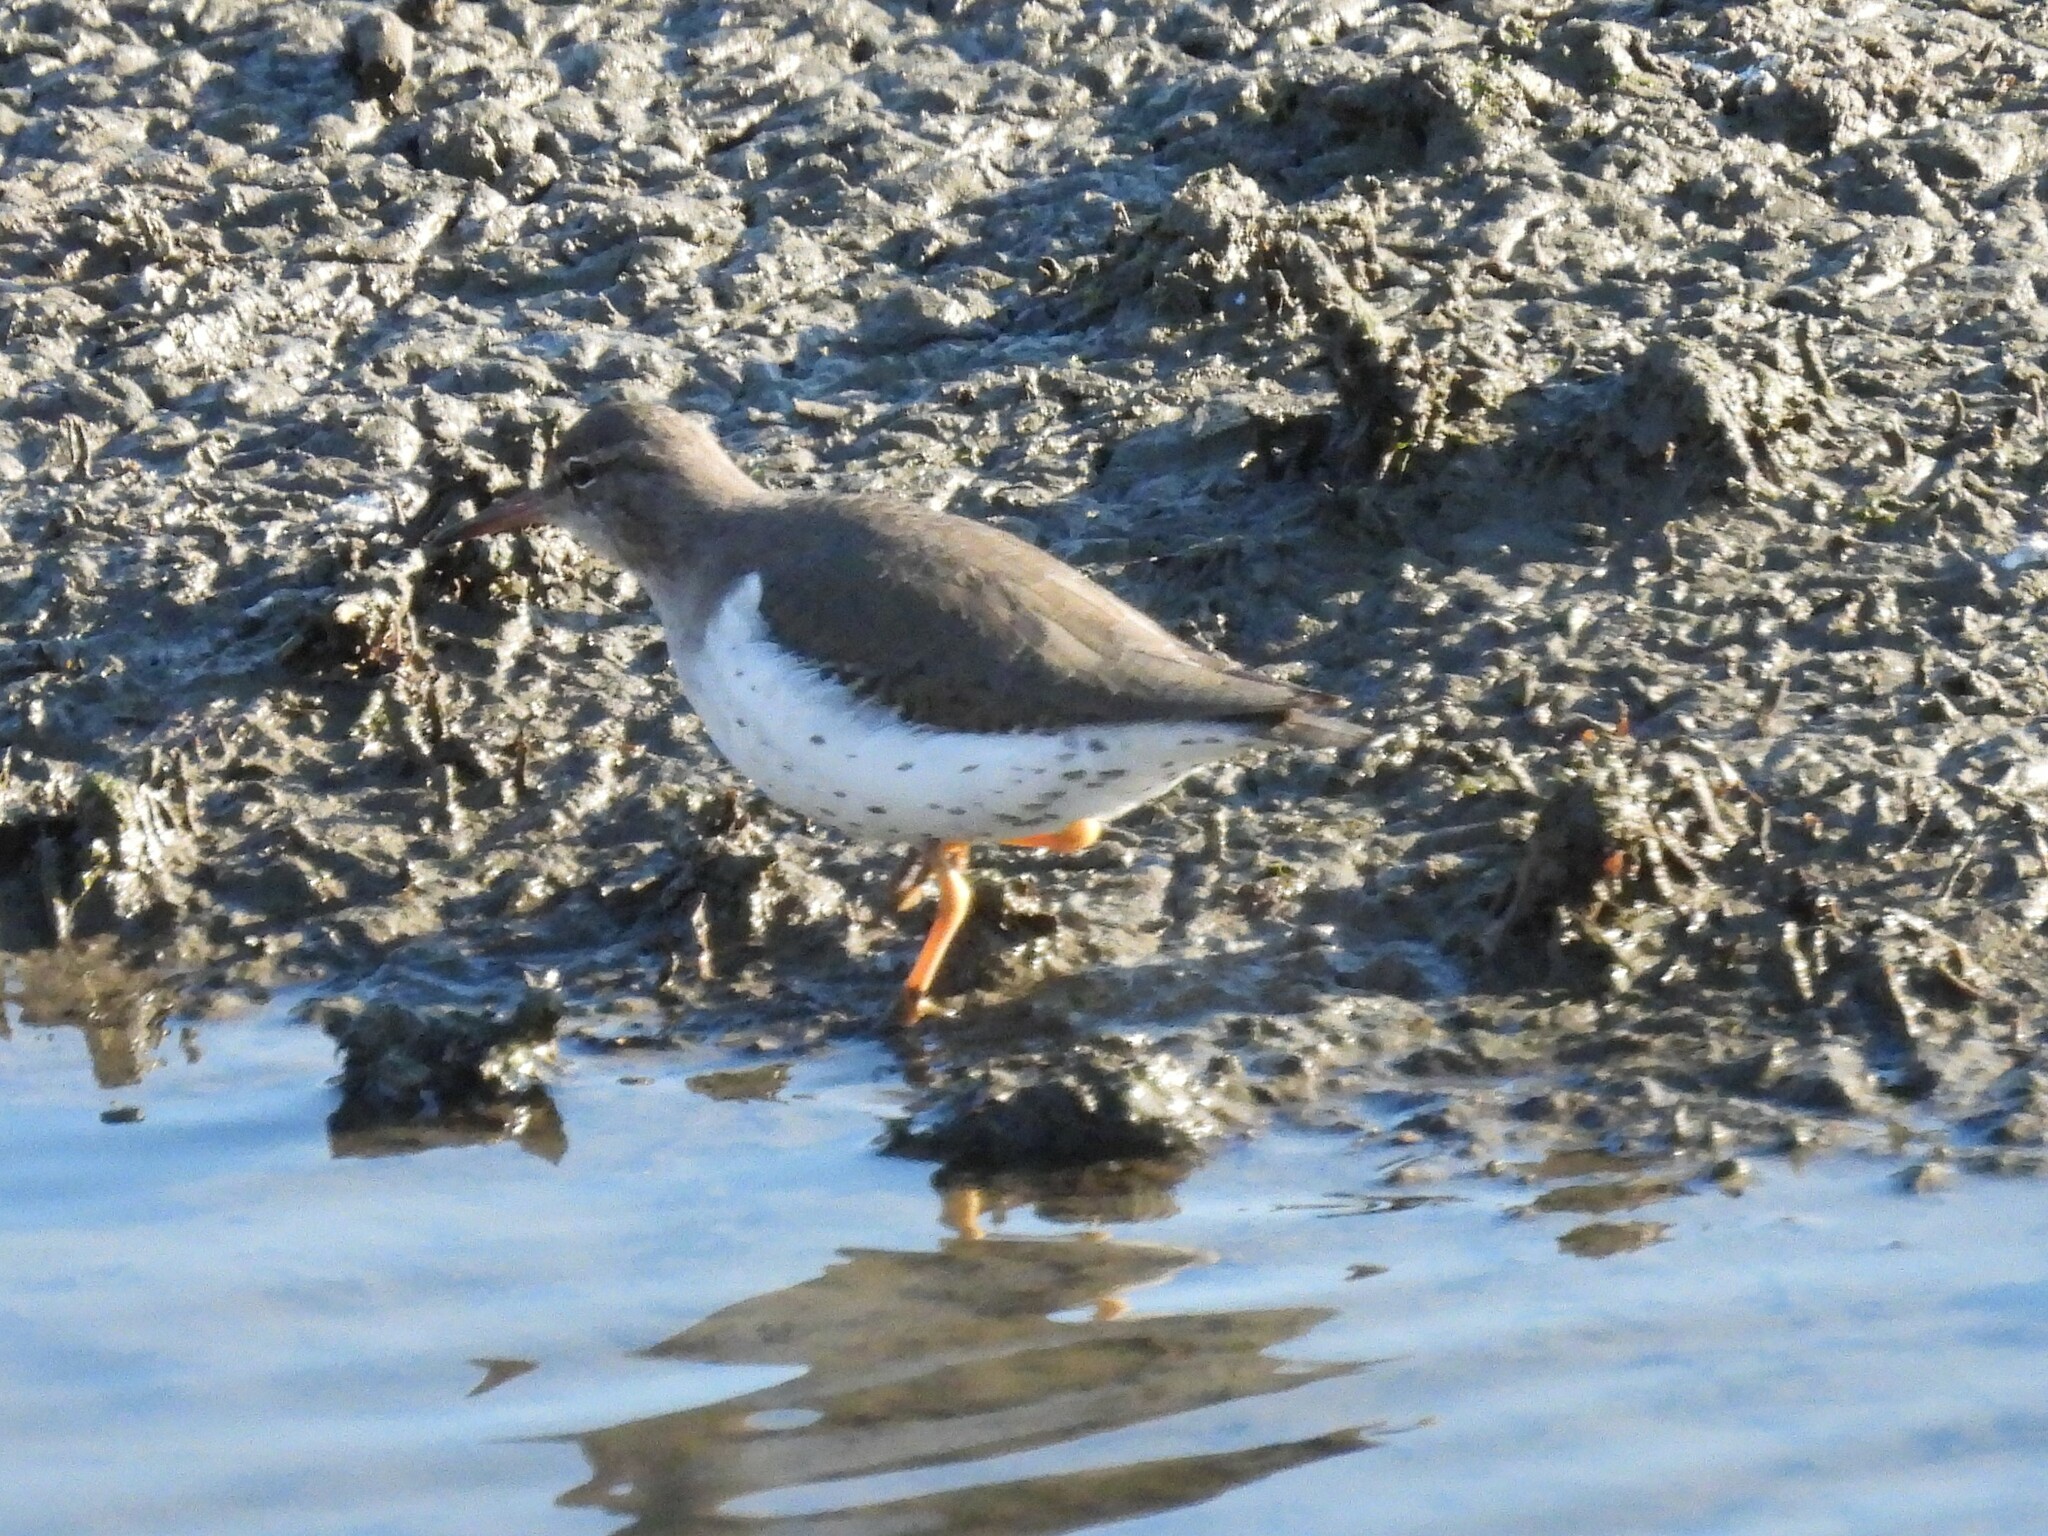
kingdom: Animalia
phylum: Chordata
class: Aves
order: Charadriiformes
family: Scolopacidae
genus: Actitis
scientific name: Actitis macularius
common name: Spotted sandpiper
